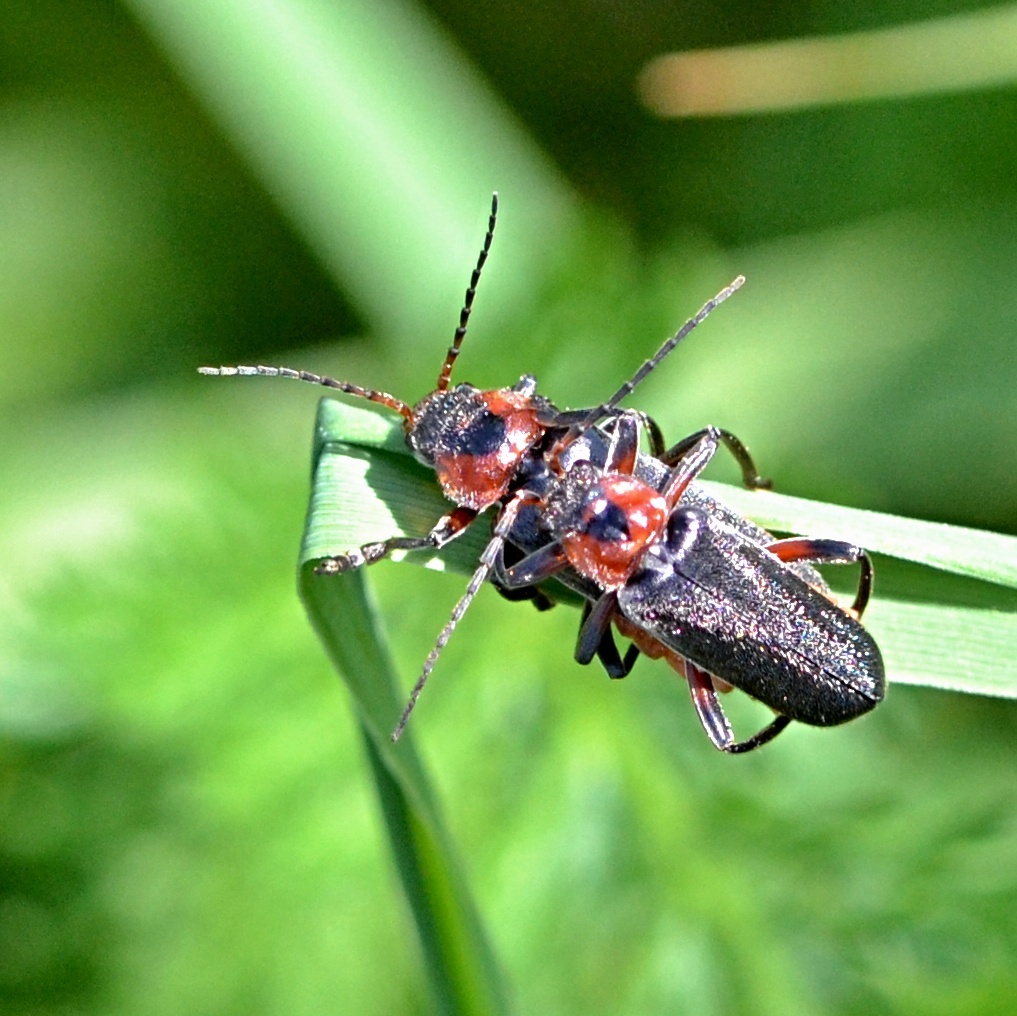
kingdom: Animalia
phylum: Arthropoda
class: Insecta
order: Coleoptera
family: Cantharidae
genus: Cantharis
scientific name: Cantharis rustica
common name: Soldier beetle
